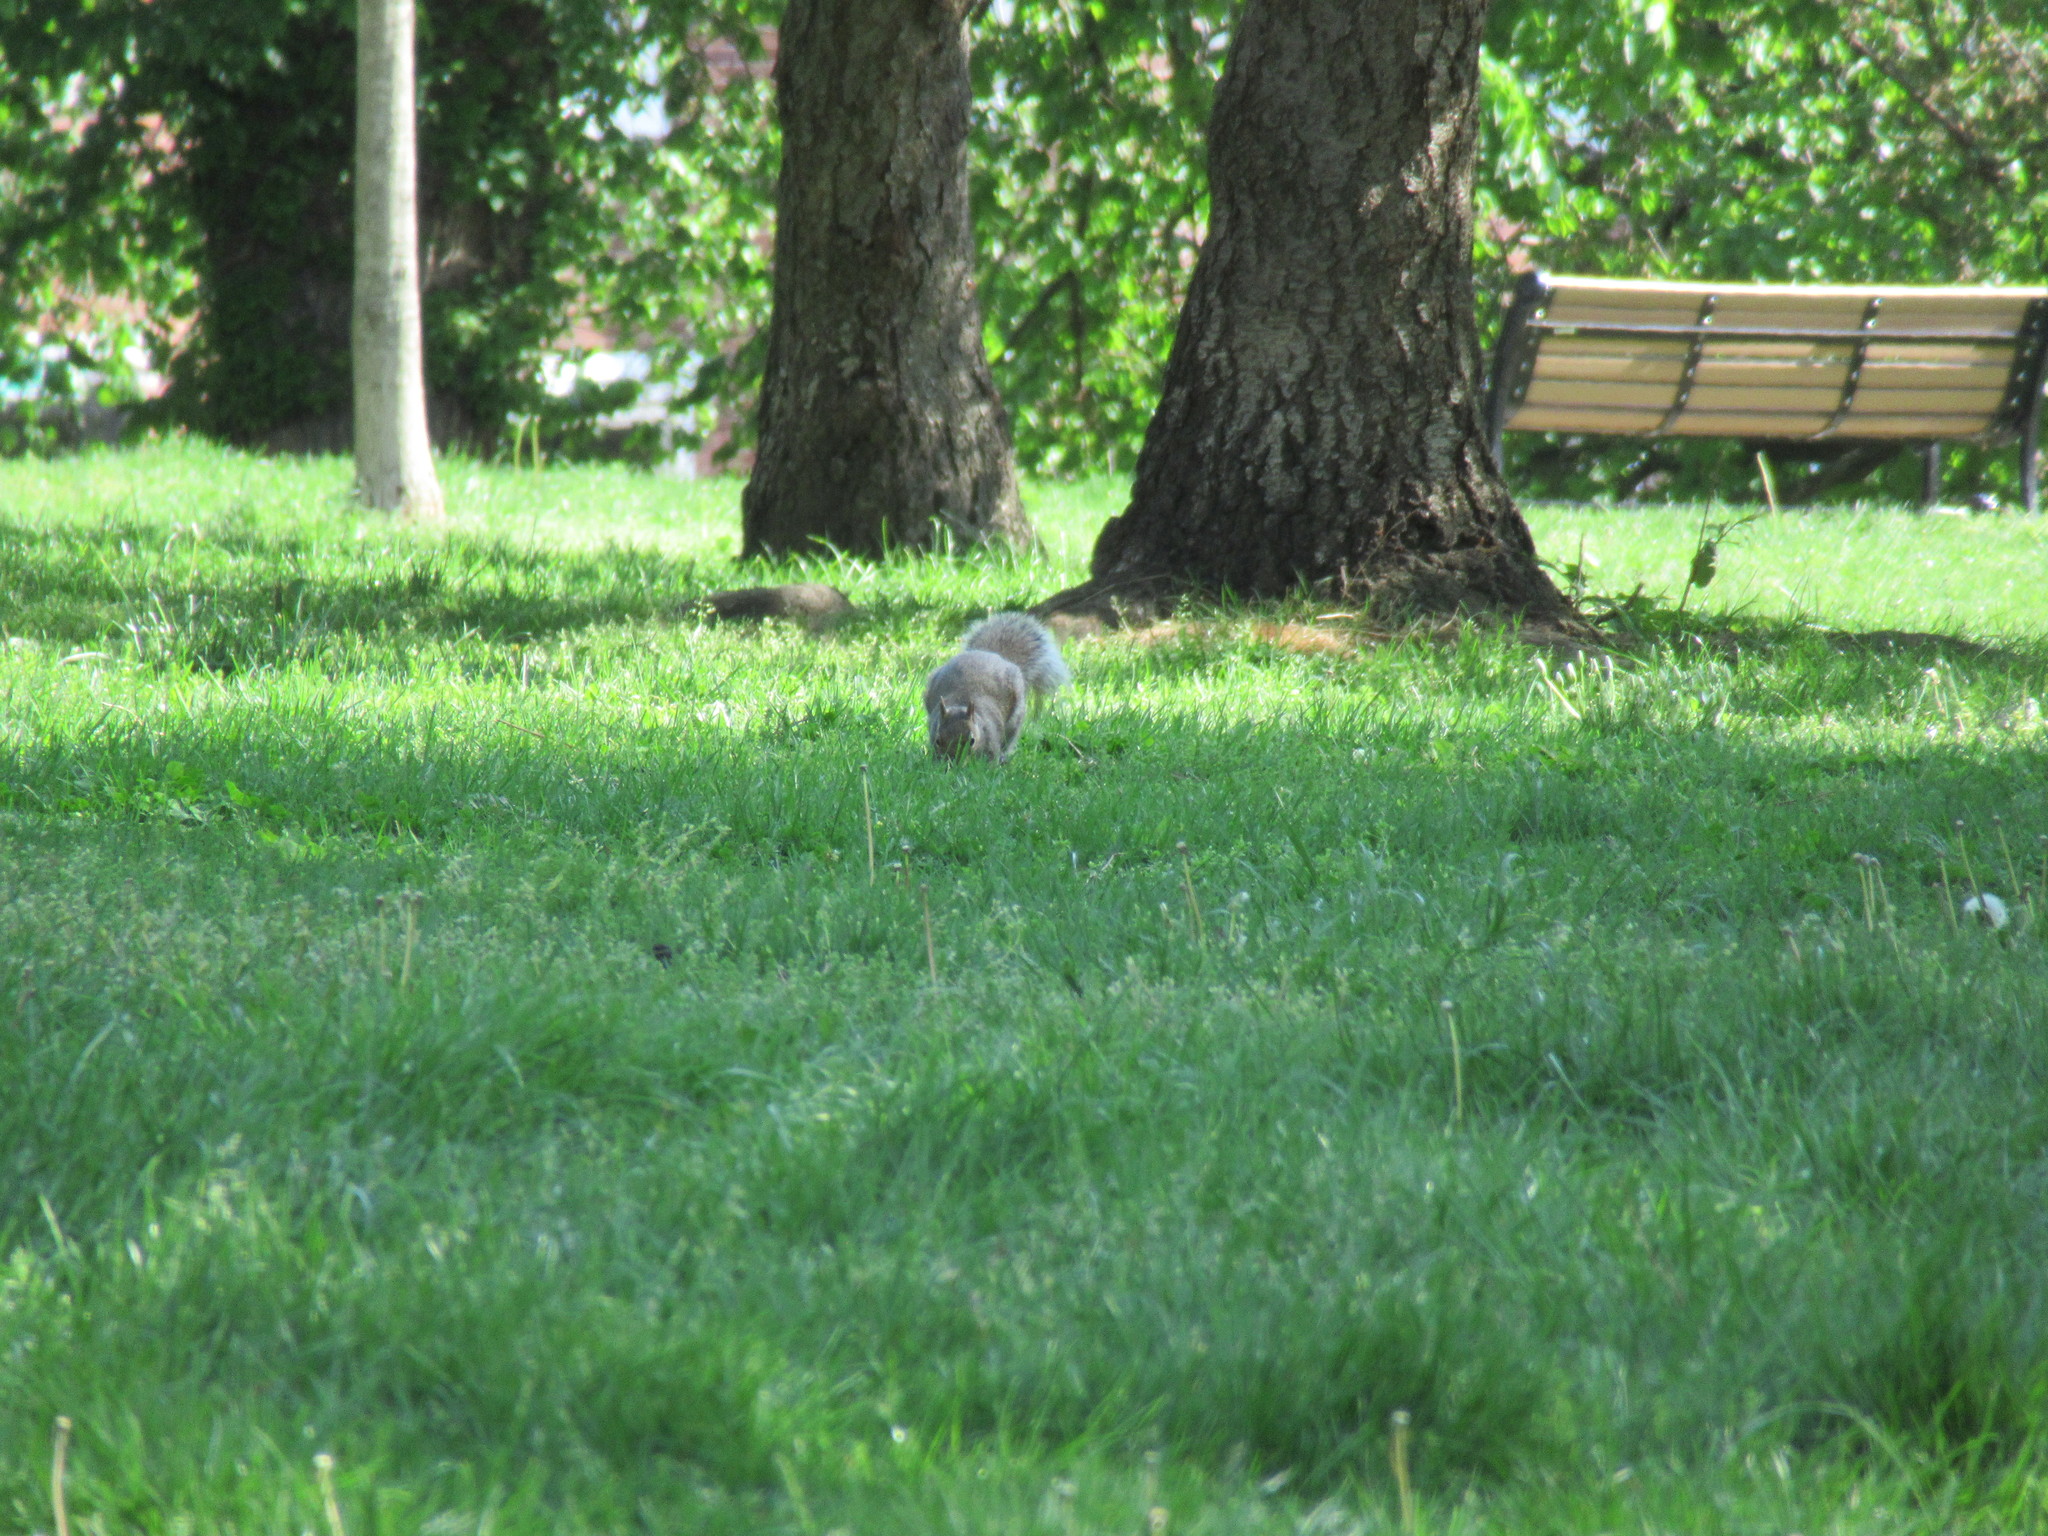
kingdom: Animalia
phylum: Chordata
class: Mammalia
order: Rodentia
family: Sciuridae
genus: Sciurus
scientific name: Sciurus carolinensis
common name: Eastern gray squirrel
